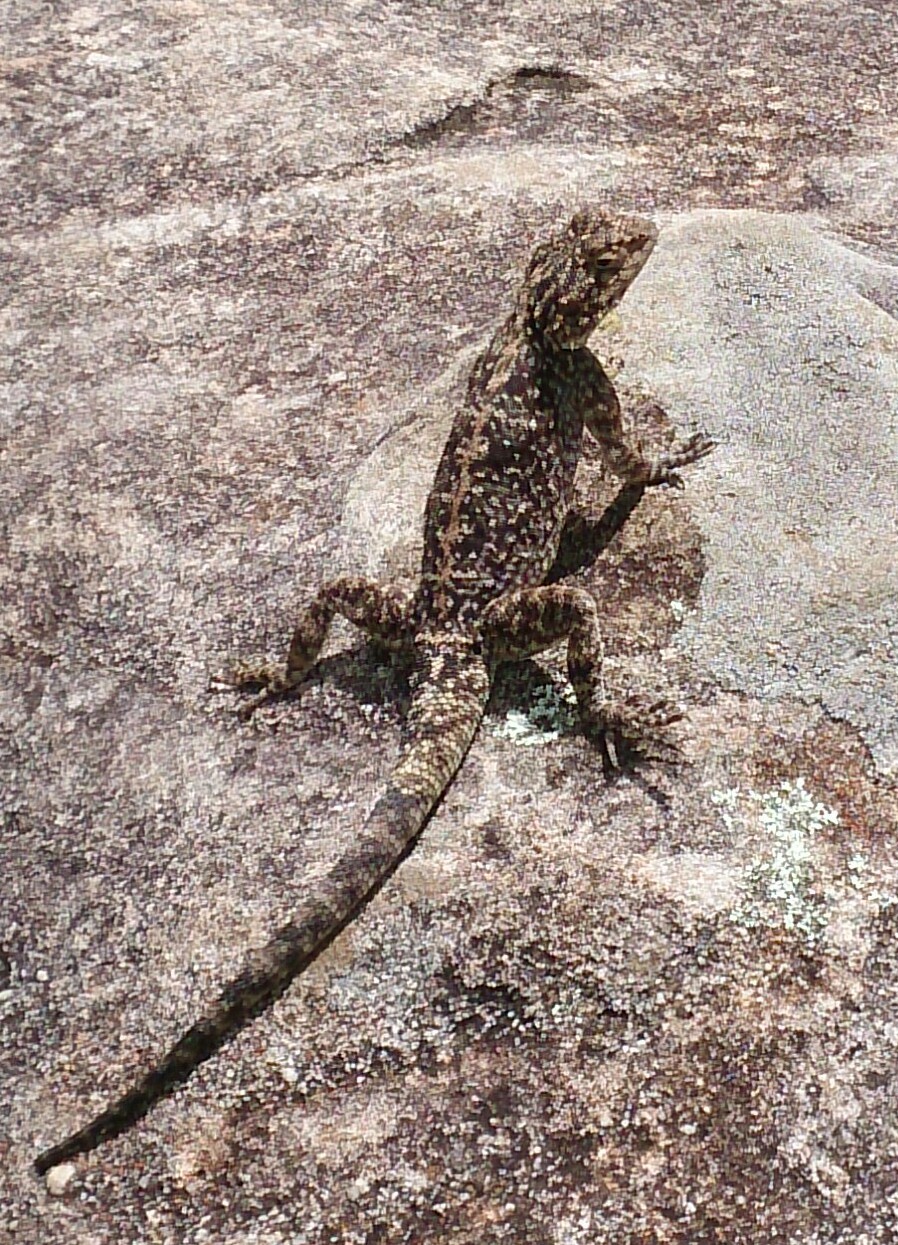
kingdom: Animalia
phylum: Chordata
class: Squamata
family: Agamidae
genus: Agama
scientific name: Agama atra
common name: Southern african rock agama
